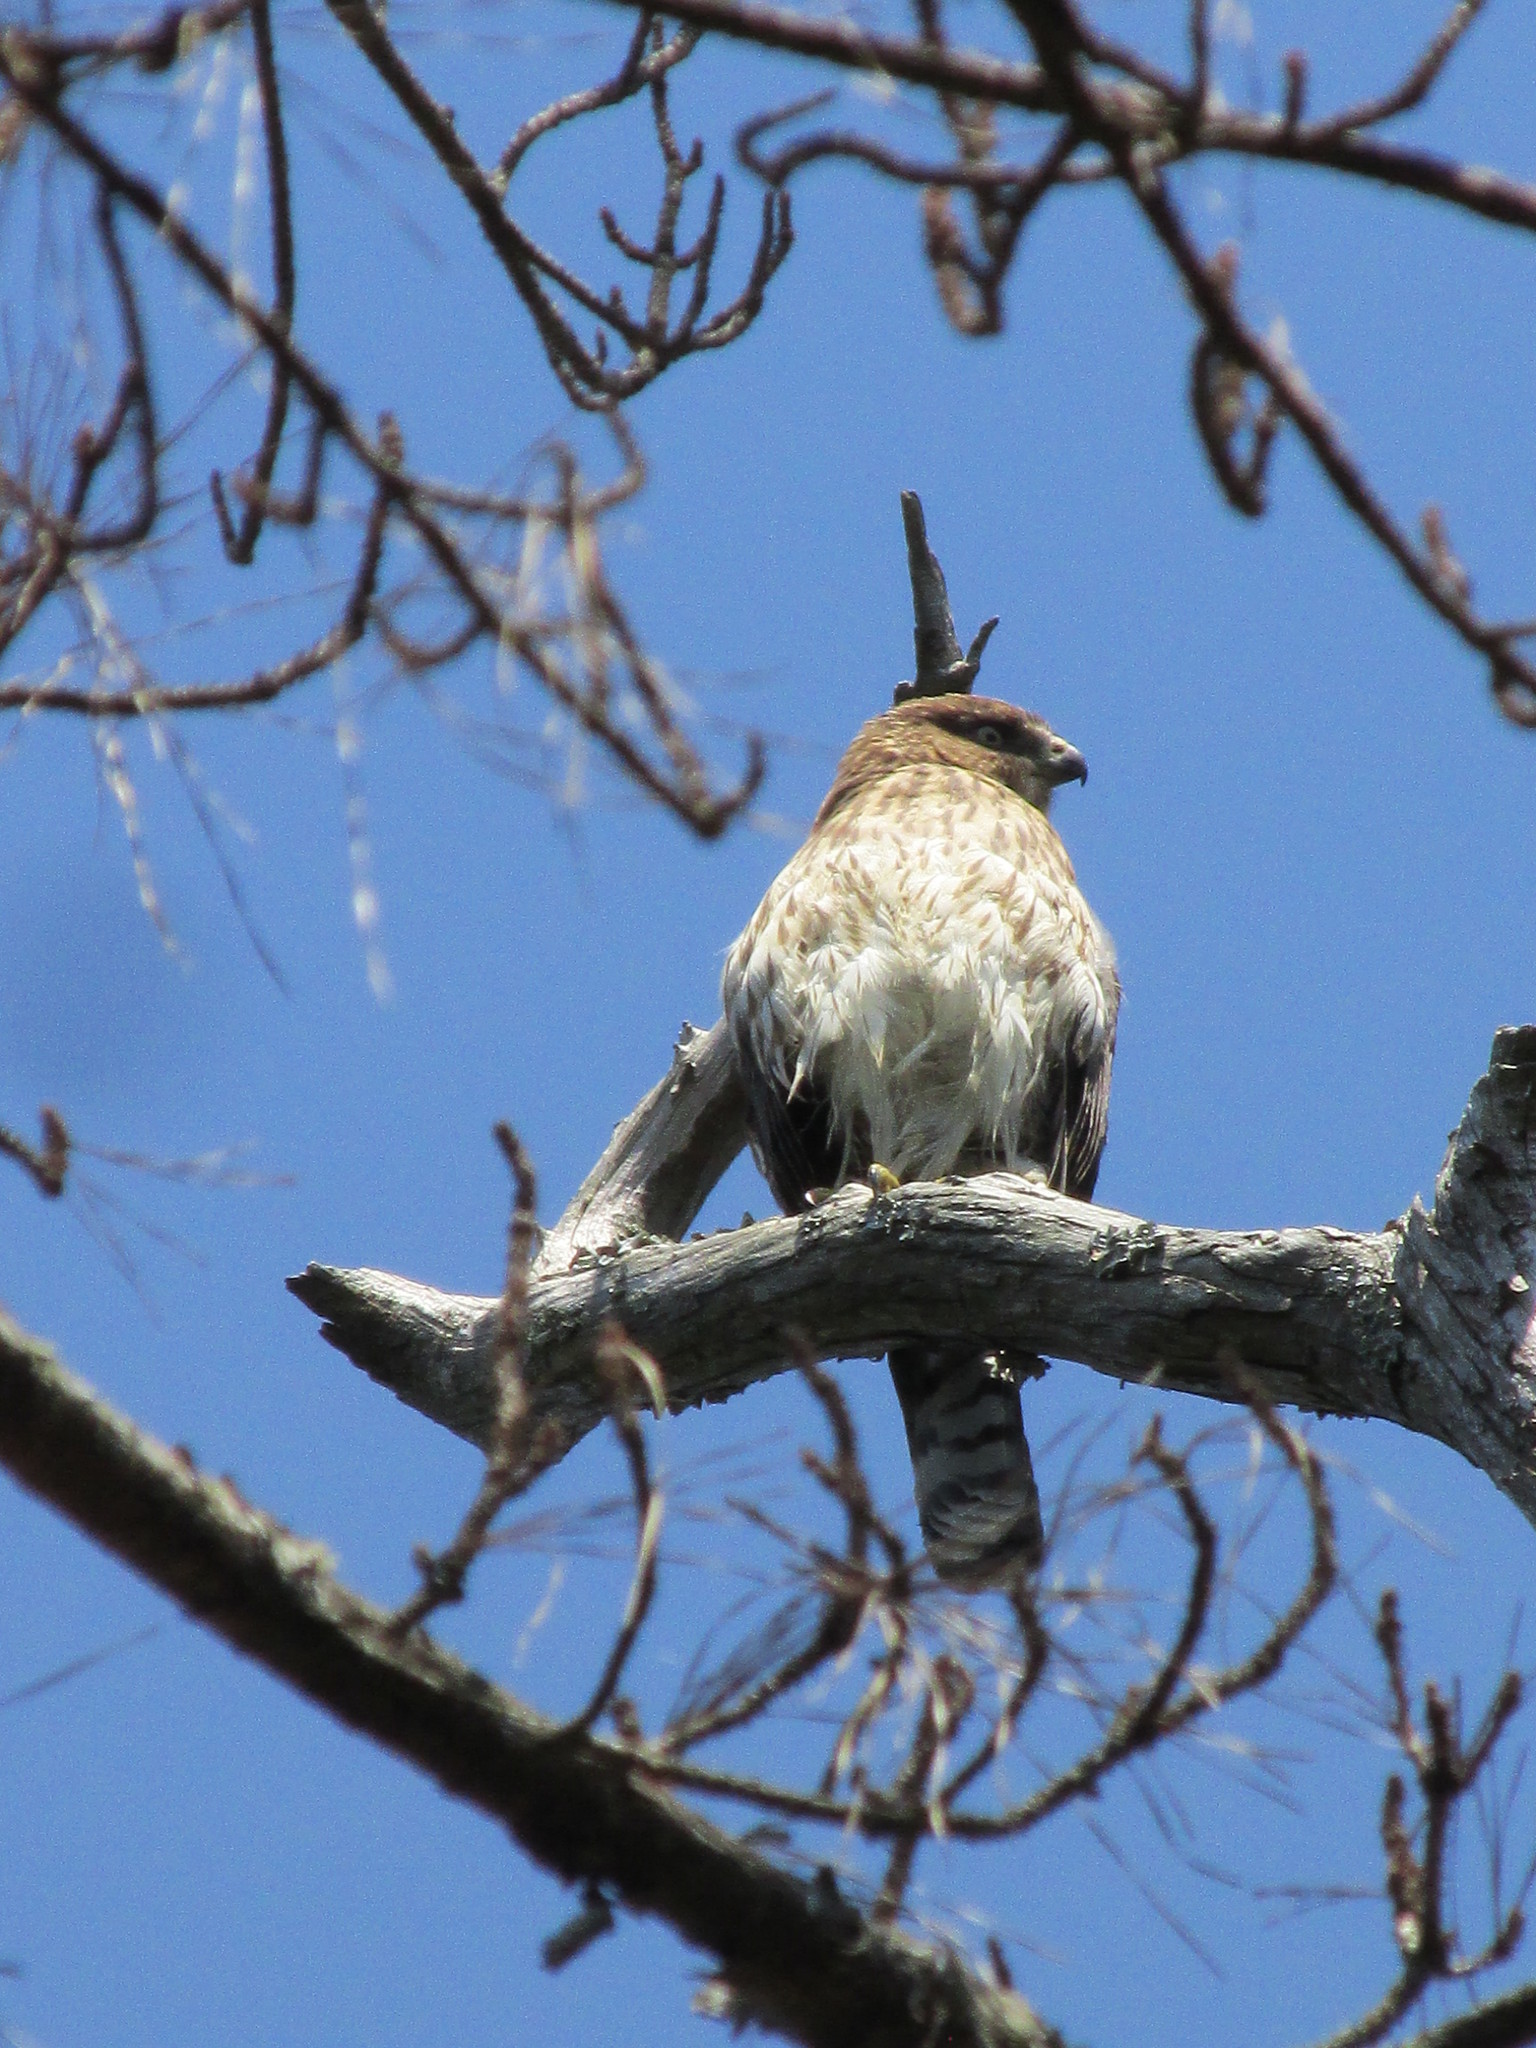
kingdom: Animalia
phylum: Chordata
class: Aves
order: Accipitriformes
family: Accipitridae
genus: Accipiter
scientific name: Accipiter cooperii
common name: Cooper's hawk
